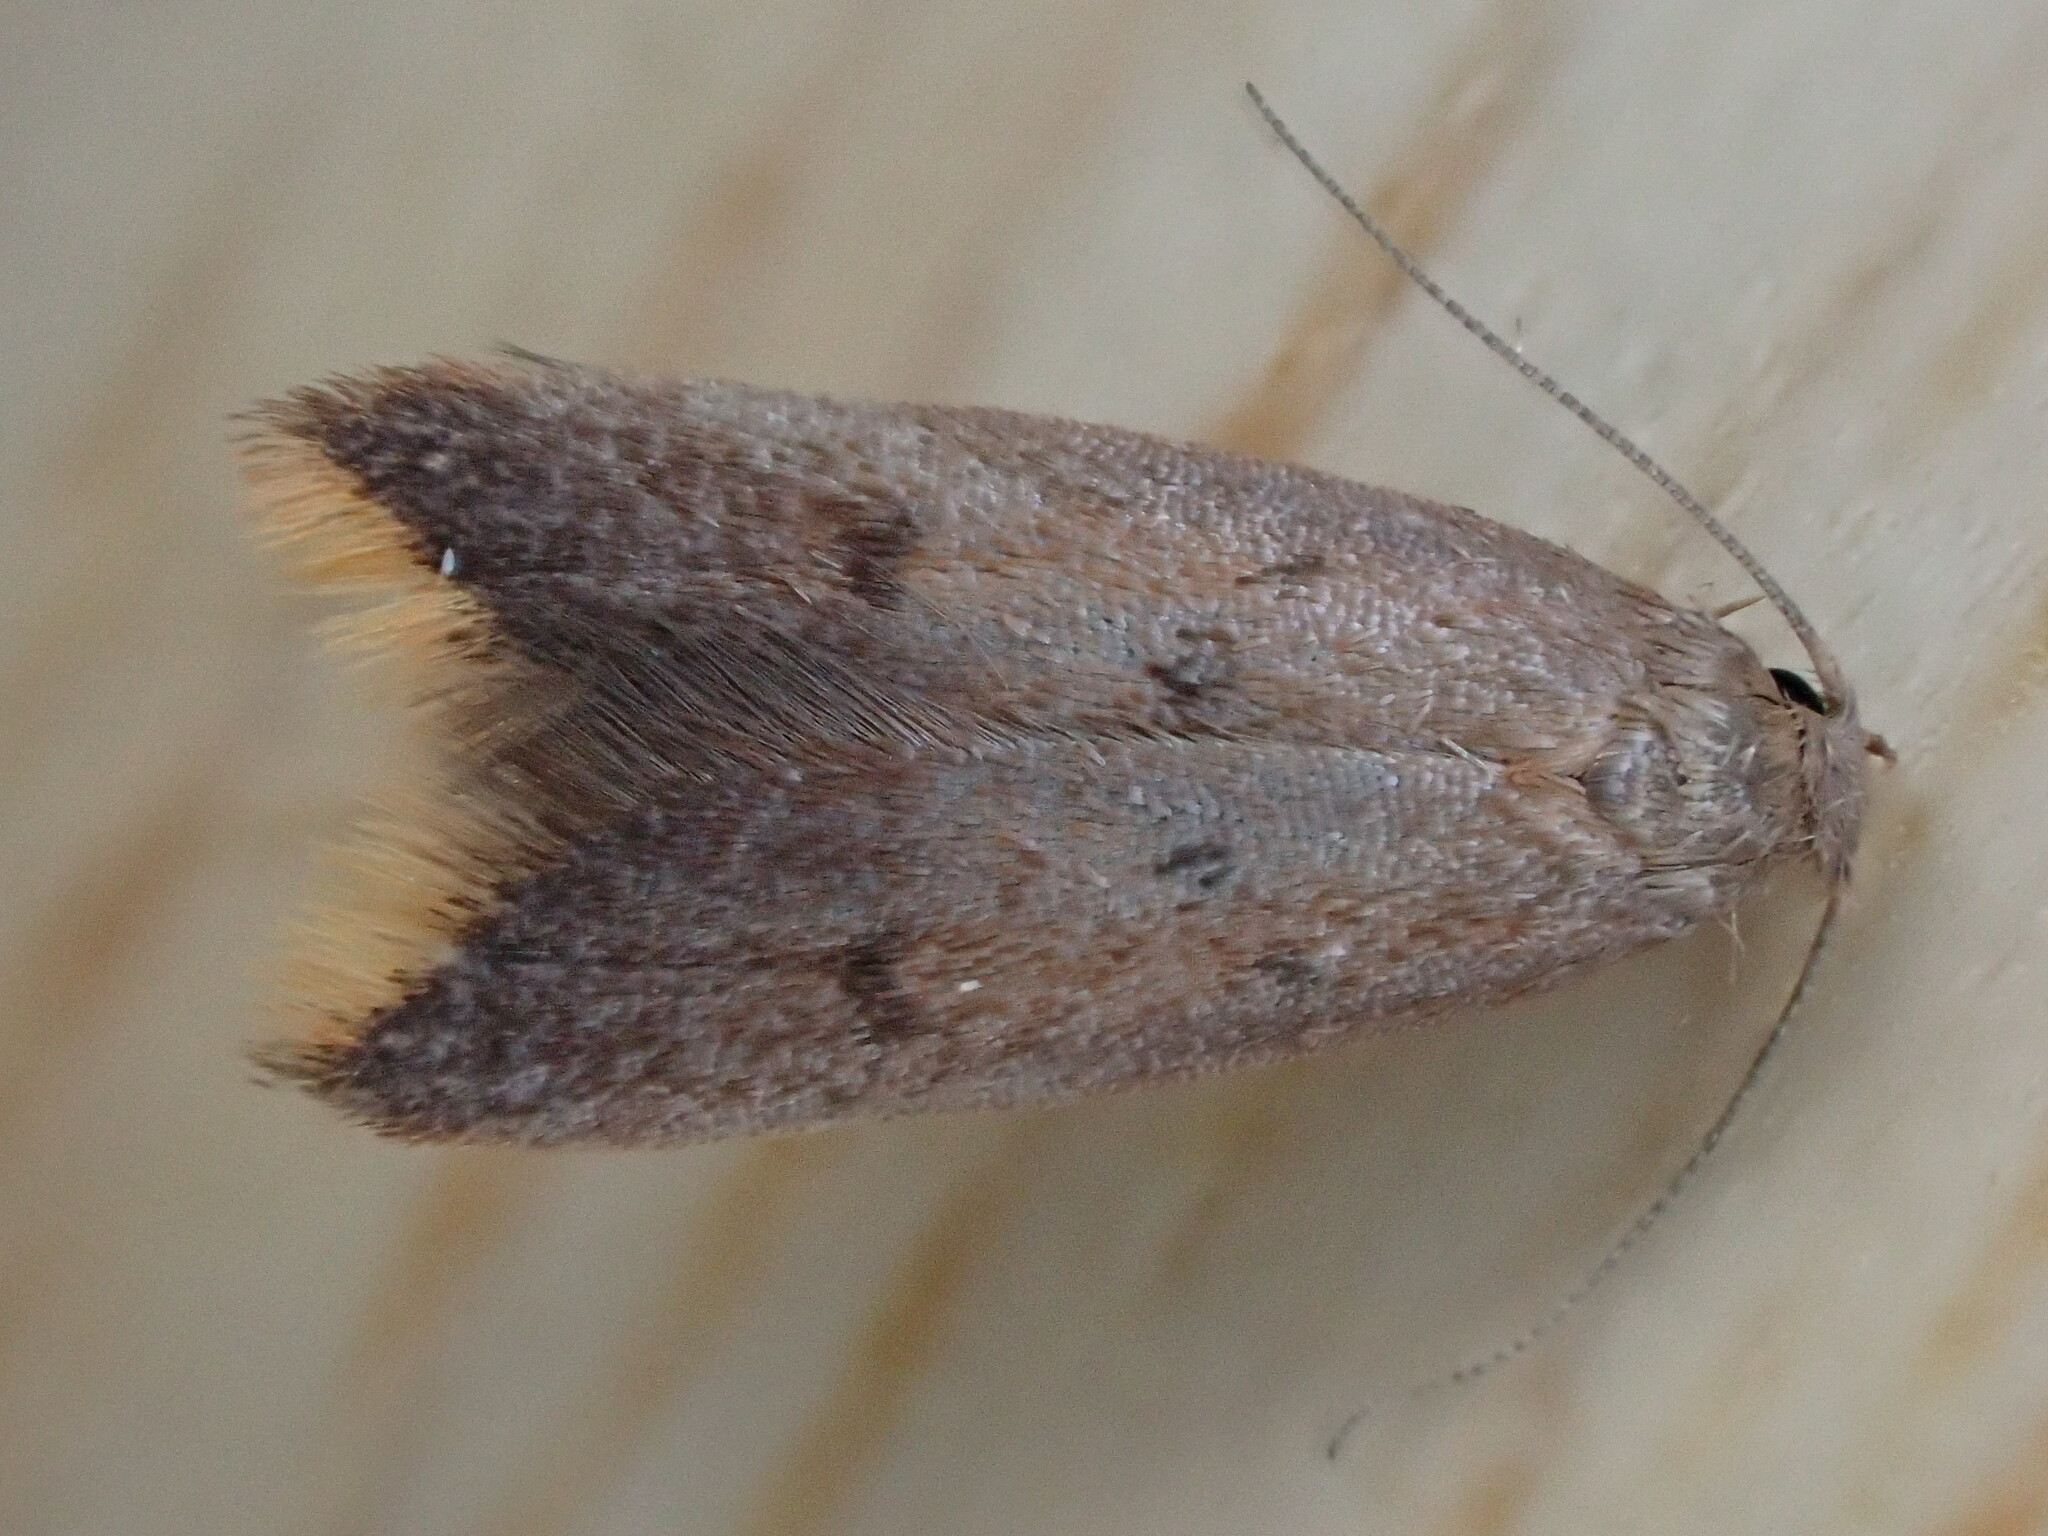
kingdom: Animalia
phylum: Arthropoda
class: Insecta
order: Lepidoptera
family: Oecophoridae
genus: Tachystola
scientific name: Tachystola acroxantha
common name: Ruddy streak
